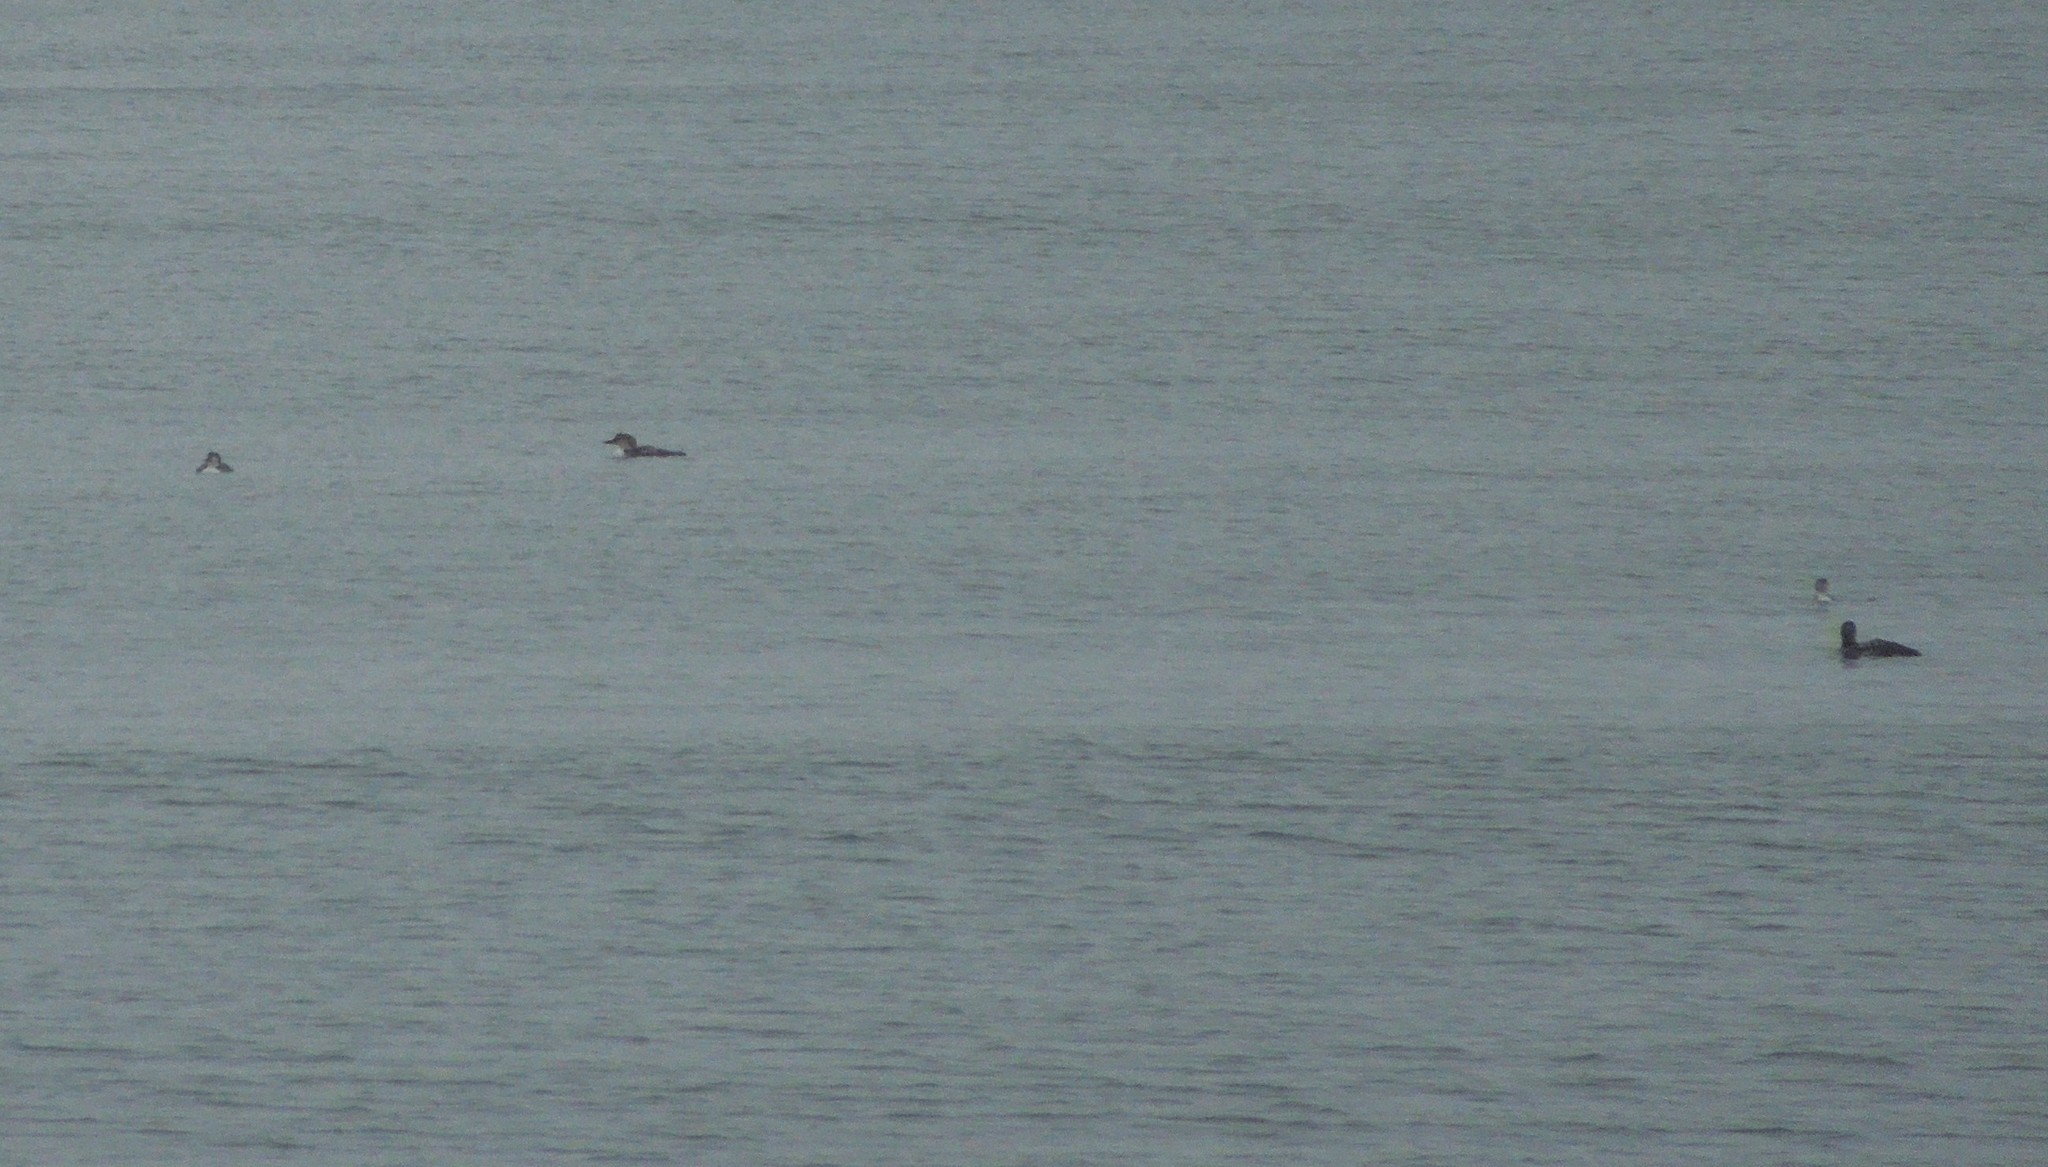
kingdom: Animalia
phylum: Chordata
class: Aves
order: Gaviiformes
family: Gaviidae
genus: Gavia
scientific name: Gavia immer
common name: Common loon
